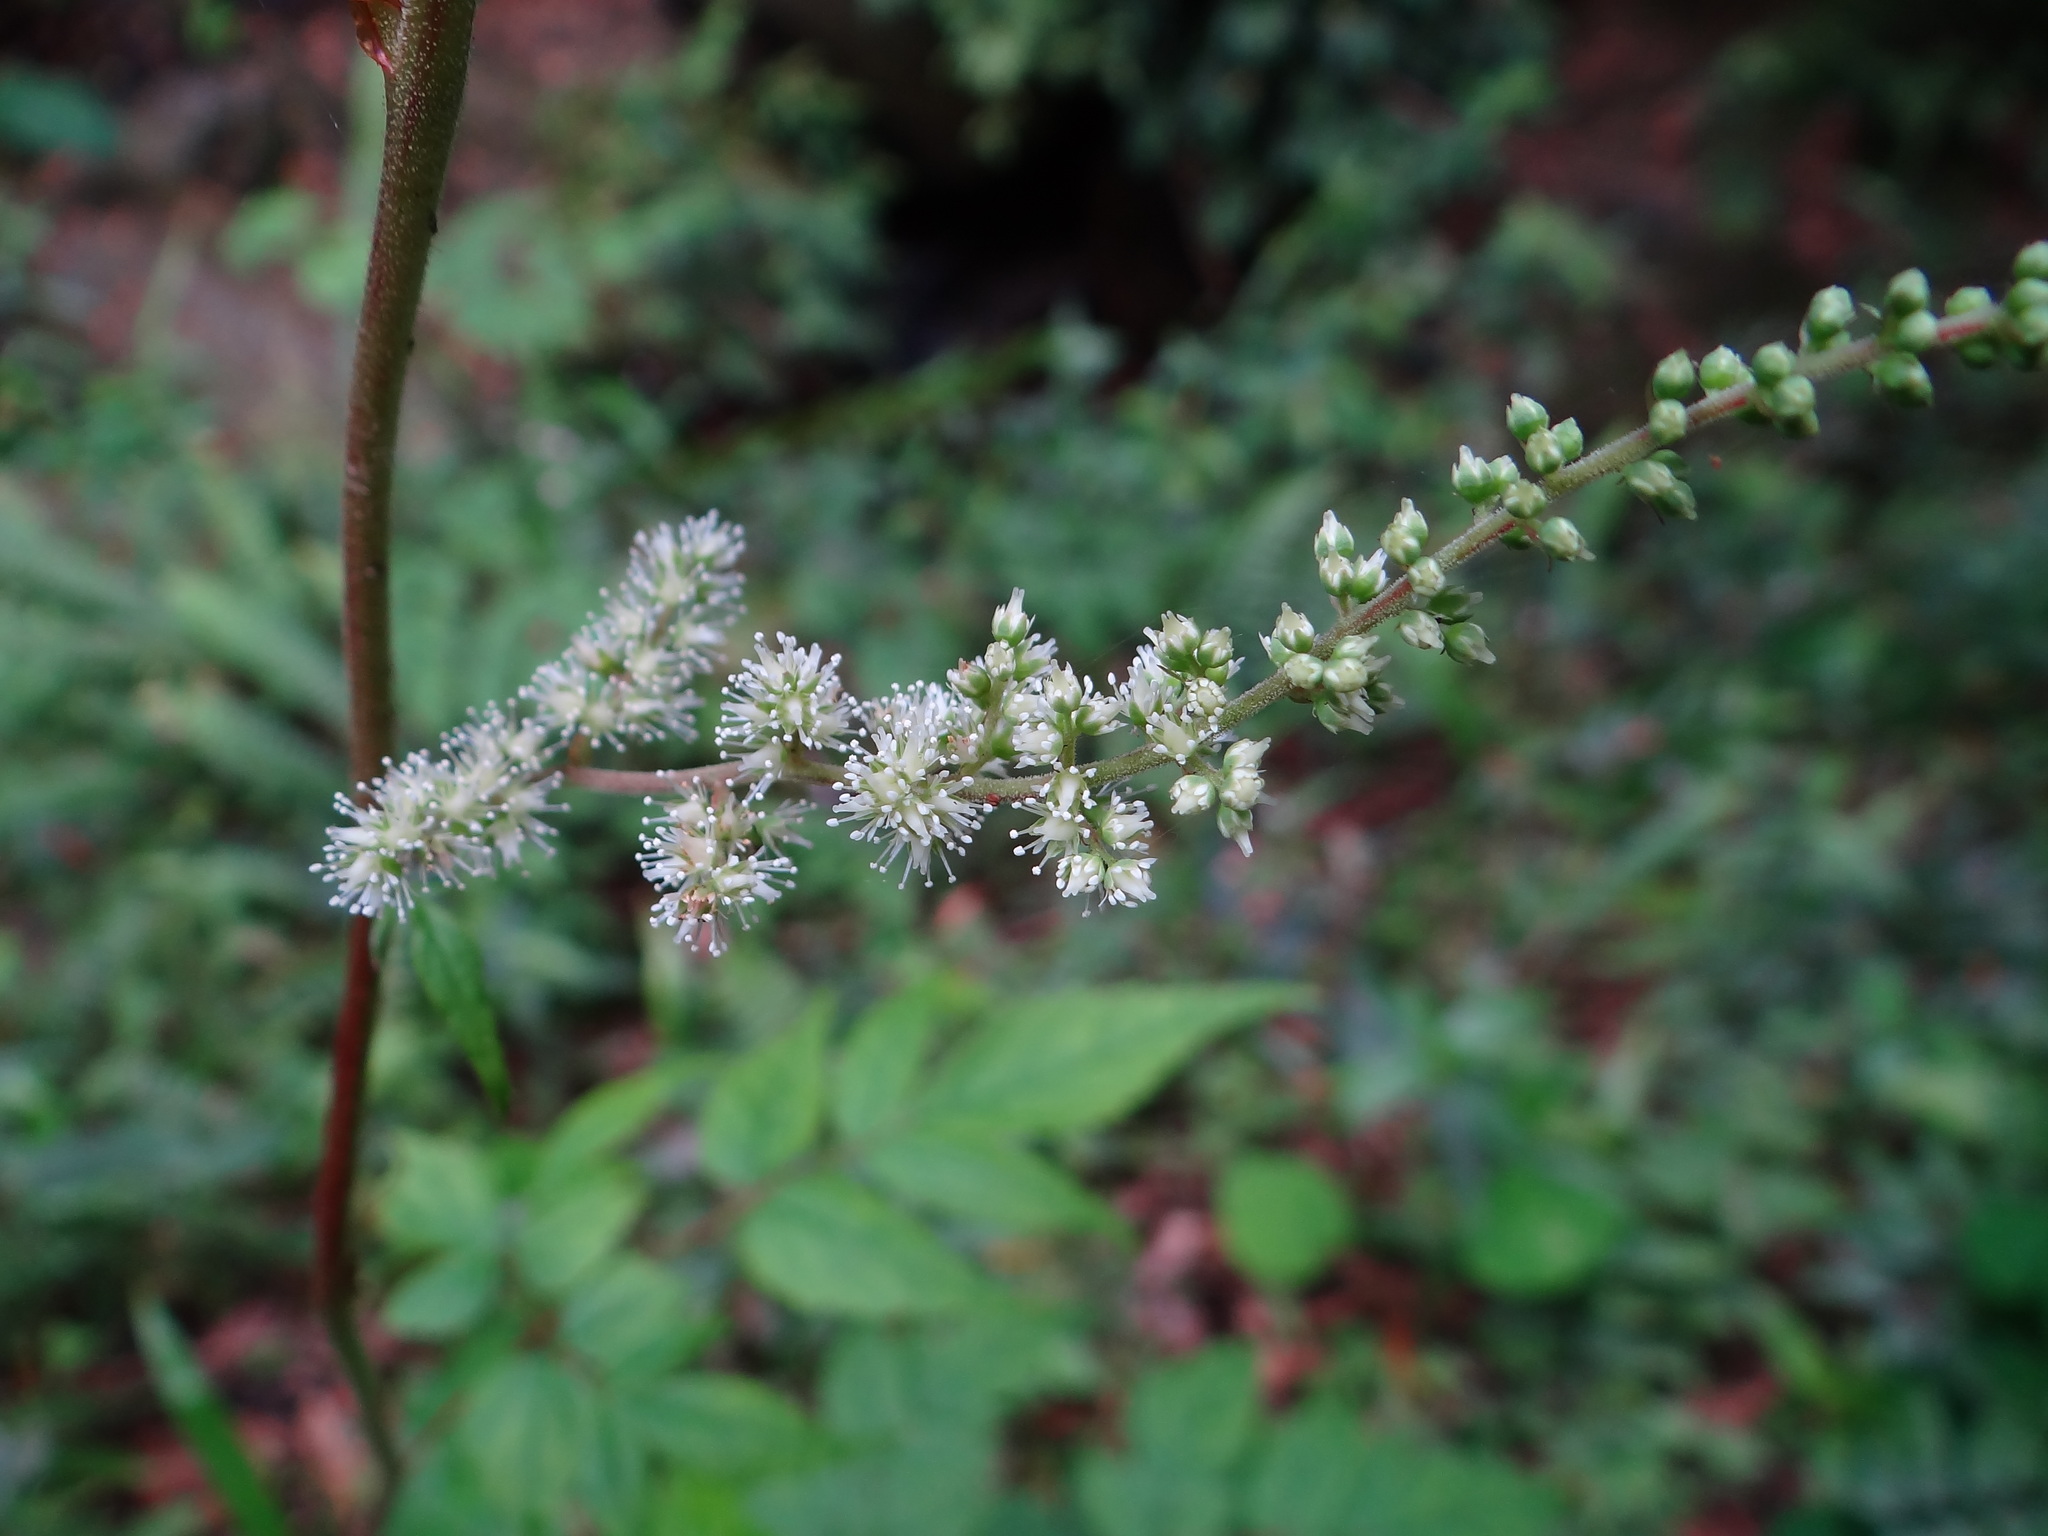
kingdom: Plantae
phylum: Tracheophyta
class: Magnoliopsida
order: Saxifragales
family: Saxifragaceae
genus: Astilbe
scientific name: Astilbe longicarpa
